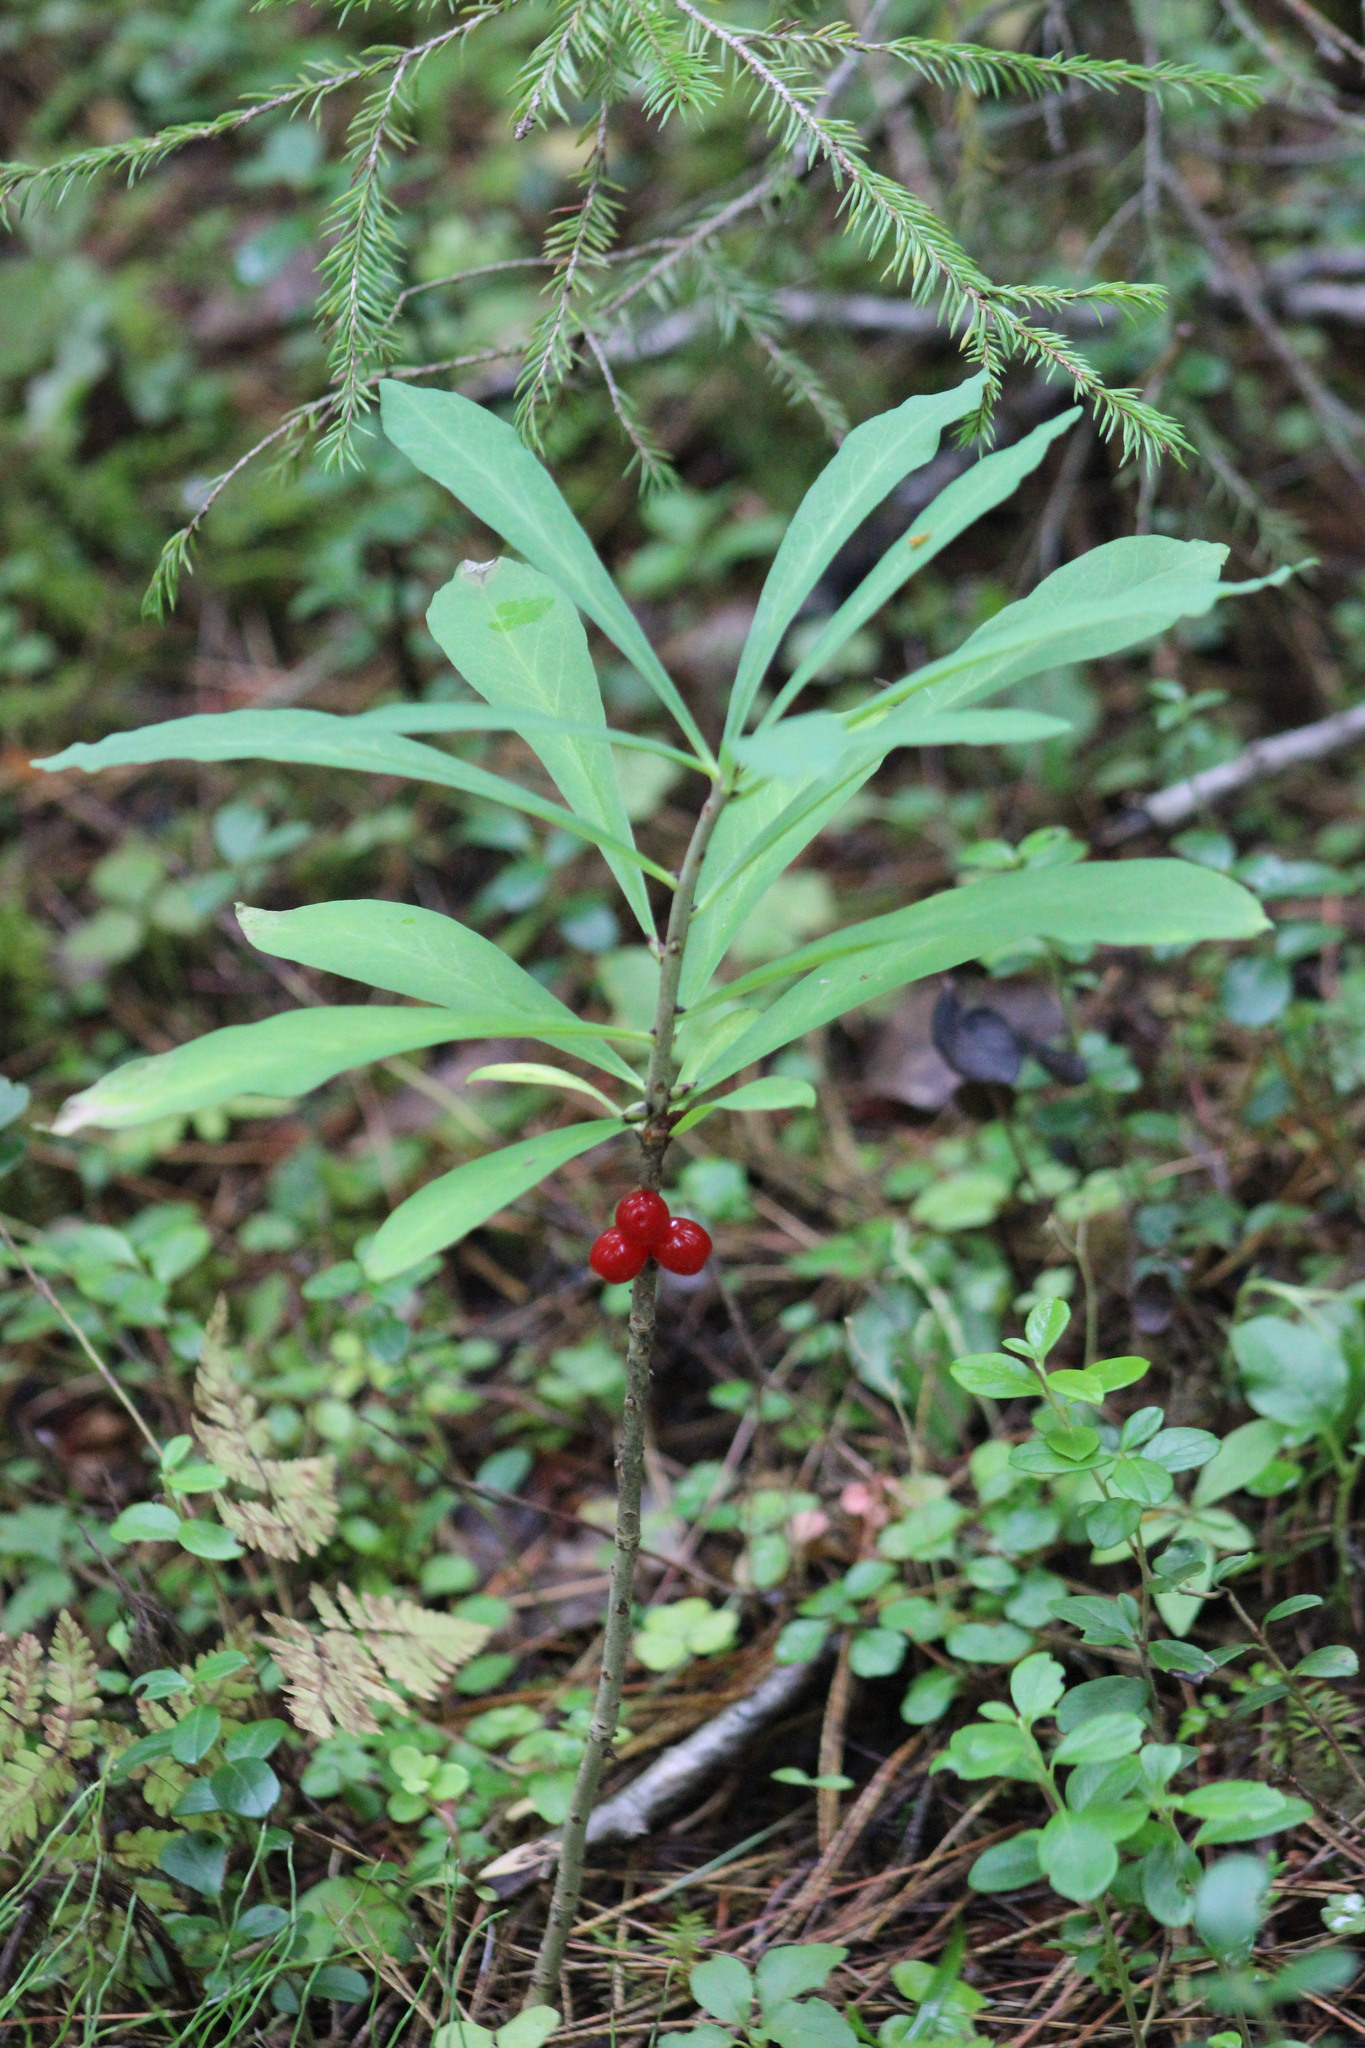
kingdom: Plantae
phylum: Tracheophyta
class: Magnoliopsida
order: Malvales
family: Thymelaeaceae
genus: Daphne
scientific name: Daphne mezereum
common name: Mezereon
